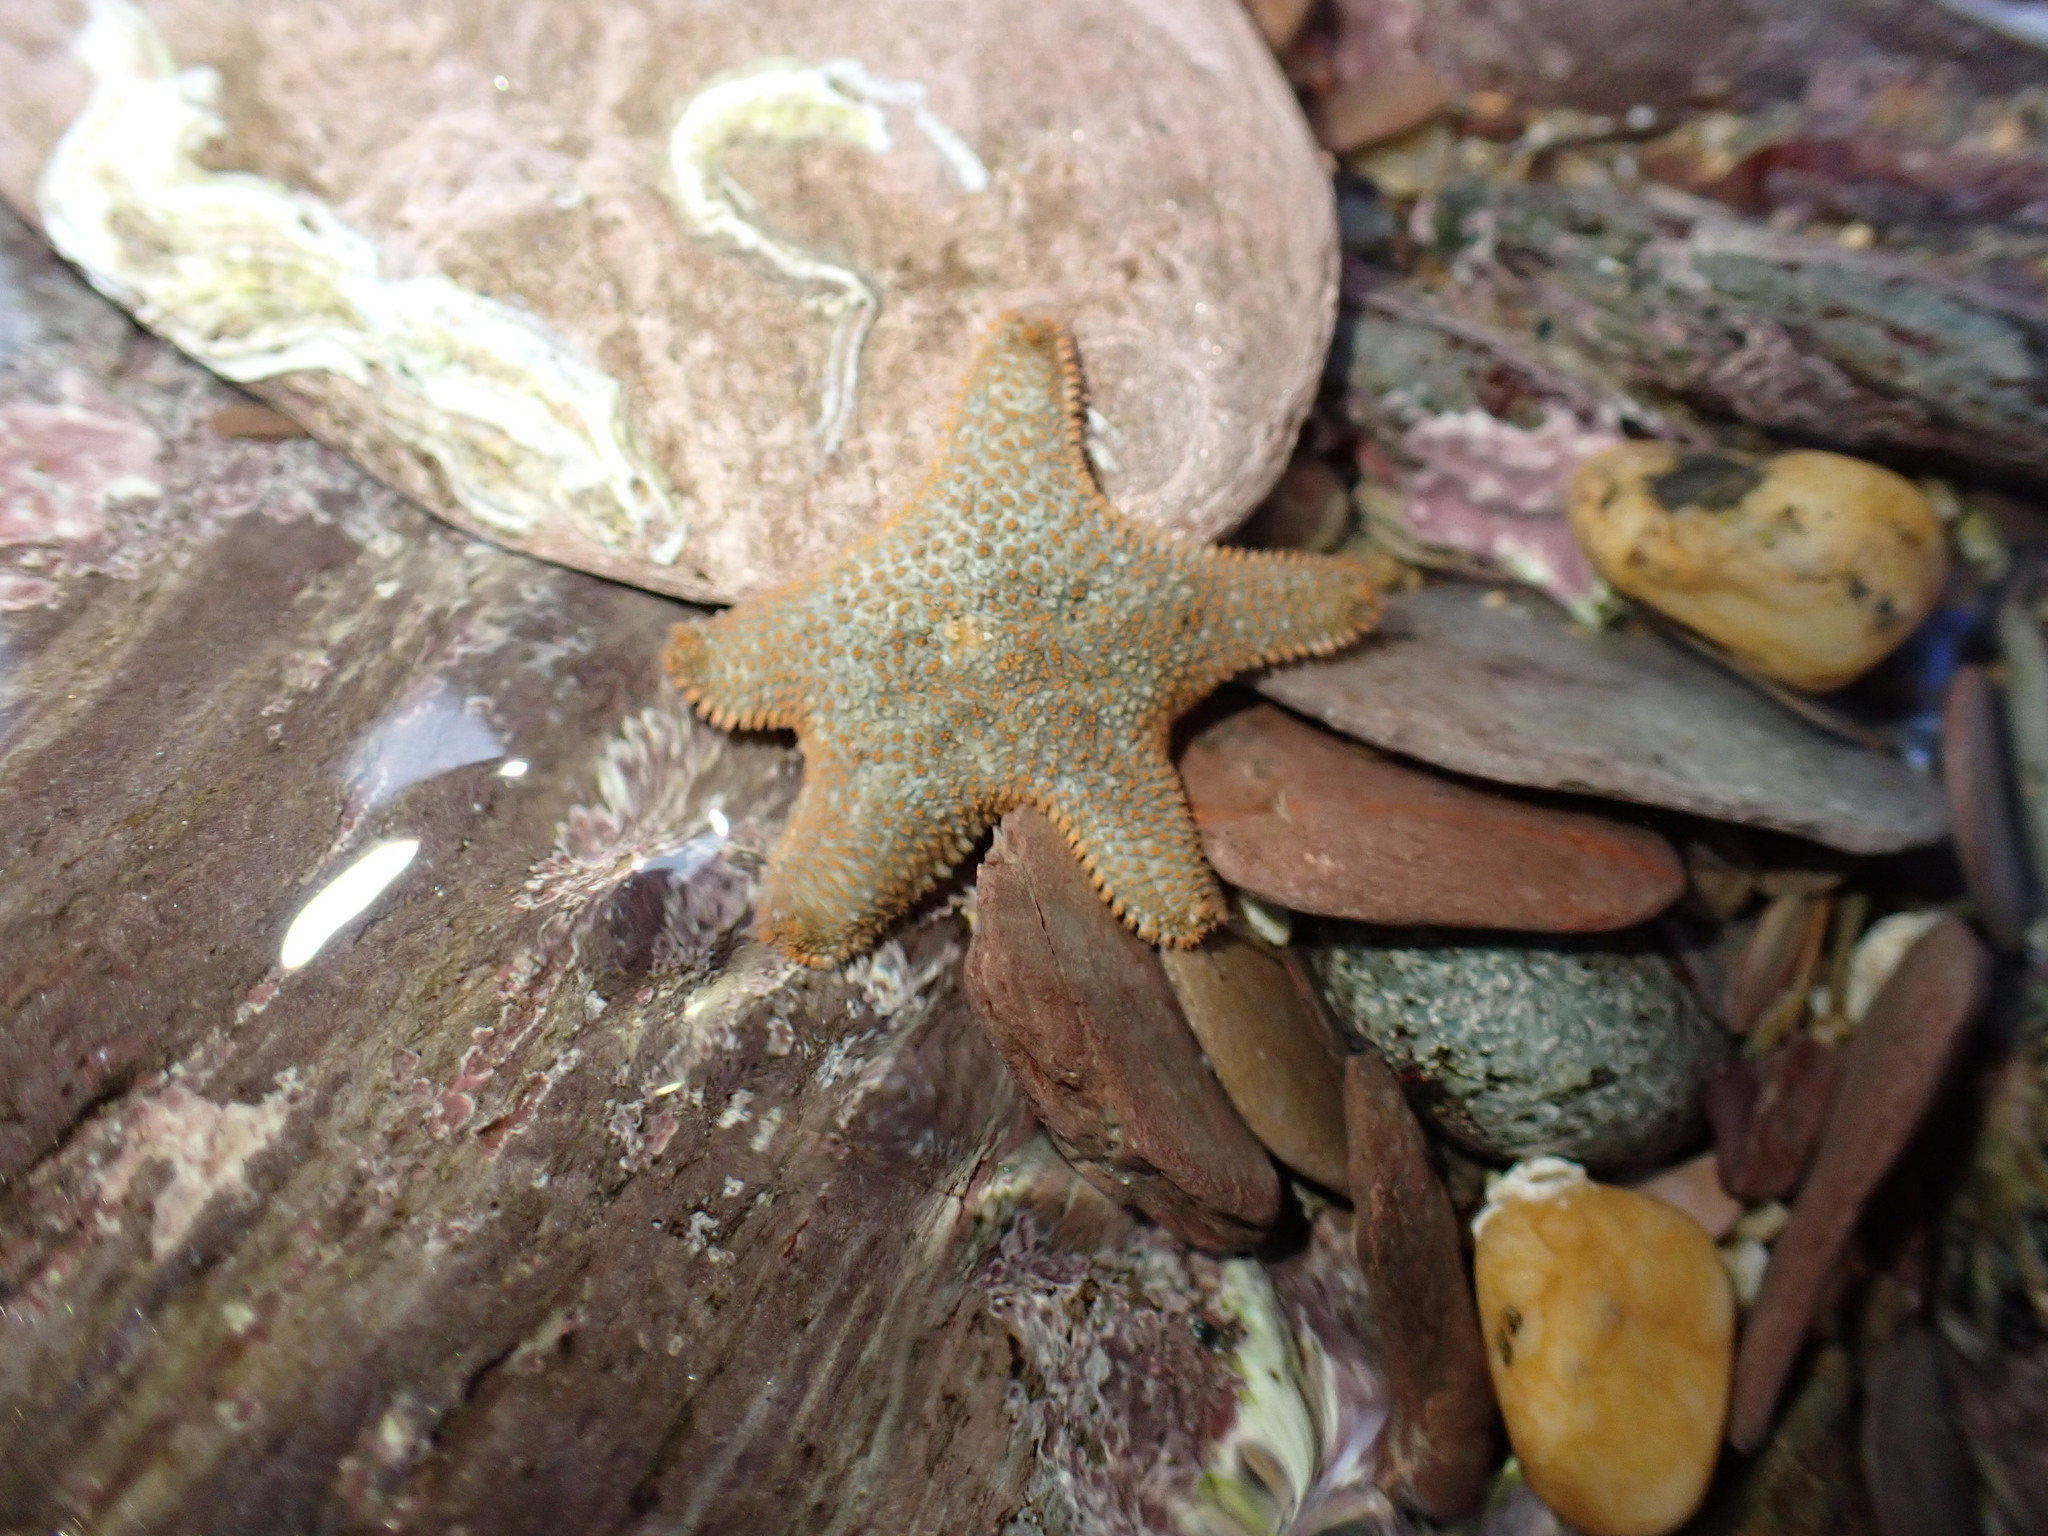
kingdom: Animalia
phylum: Echinodermata
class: Asteroidea
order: Valvatida
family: Asterinidae
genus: Asterina
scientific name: Asterina gibbosa
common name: Cushion star
